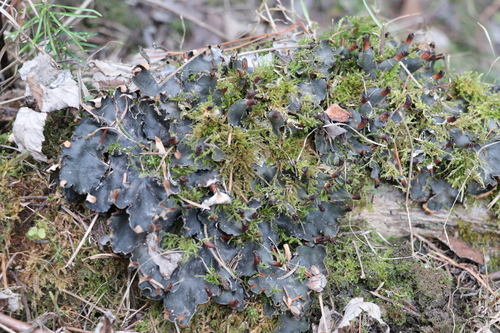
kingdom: Fungi
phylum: Ascomycota
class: Lecanoromycetes
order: Peltigerales
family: Peltigeraceae
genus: Peltigera
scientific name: Peltigera polydactylon
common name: Many-fruited pelt lichen
